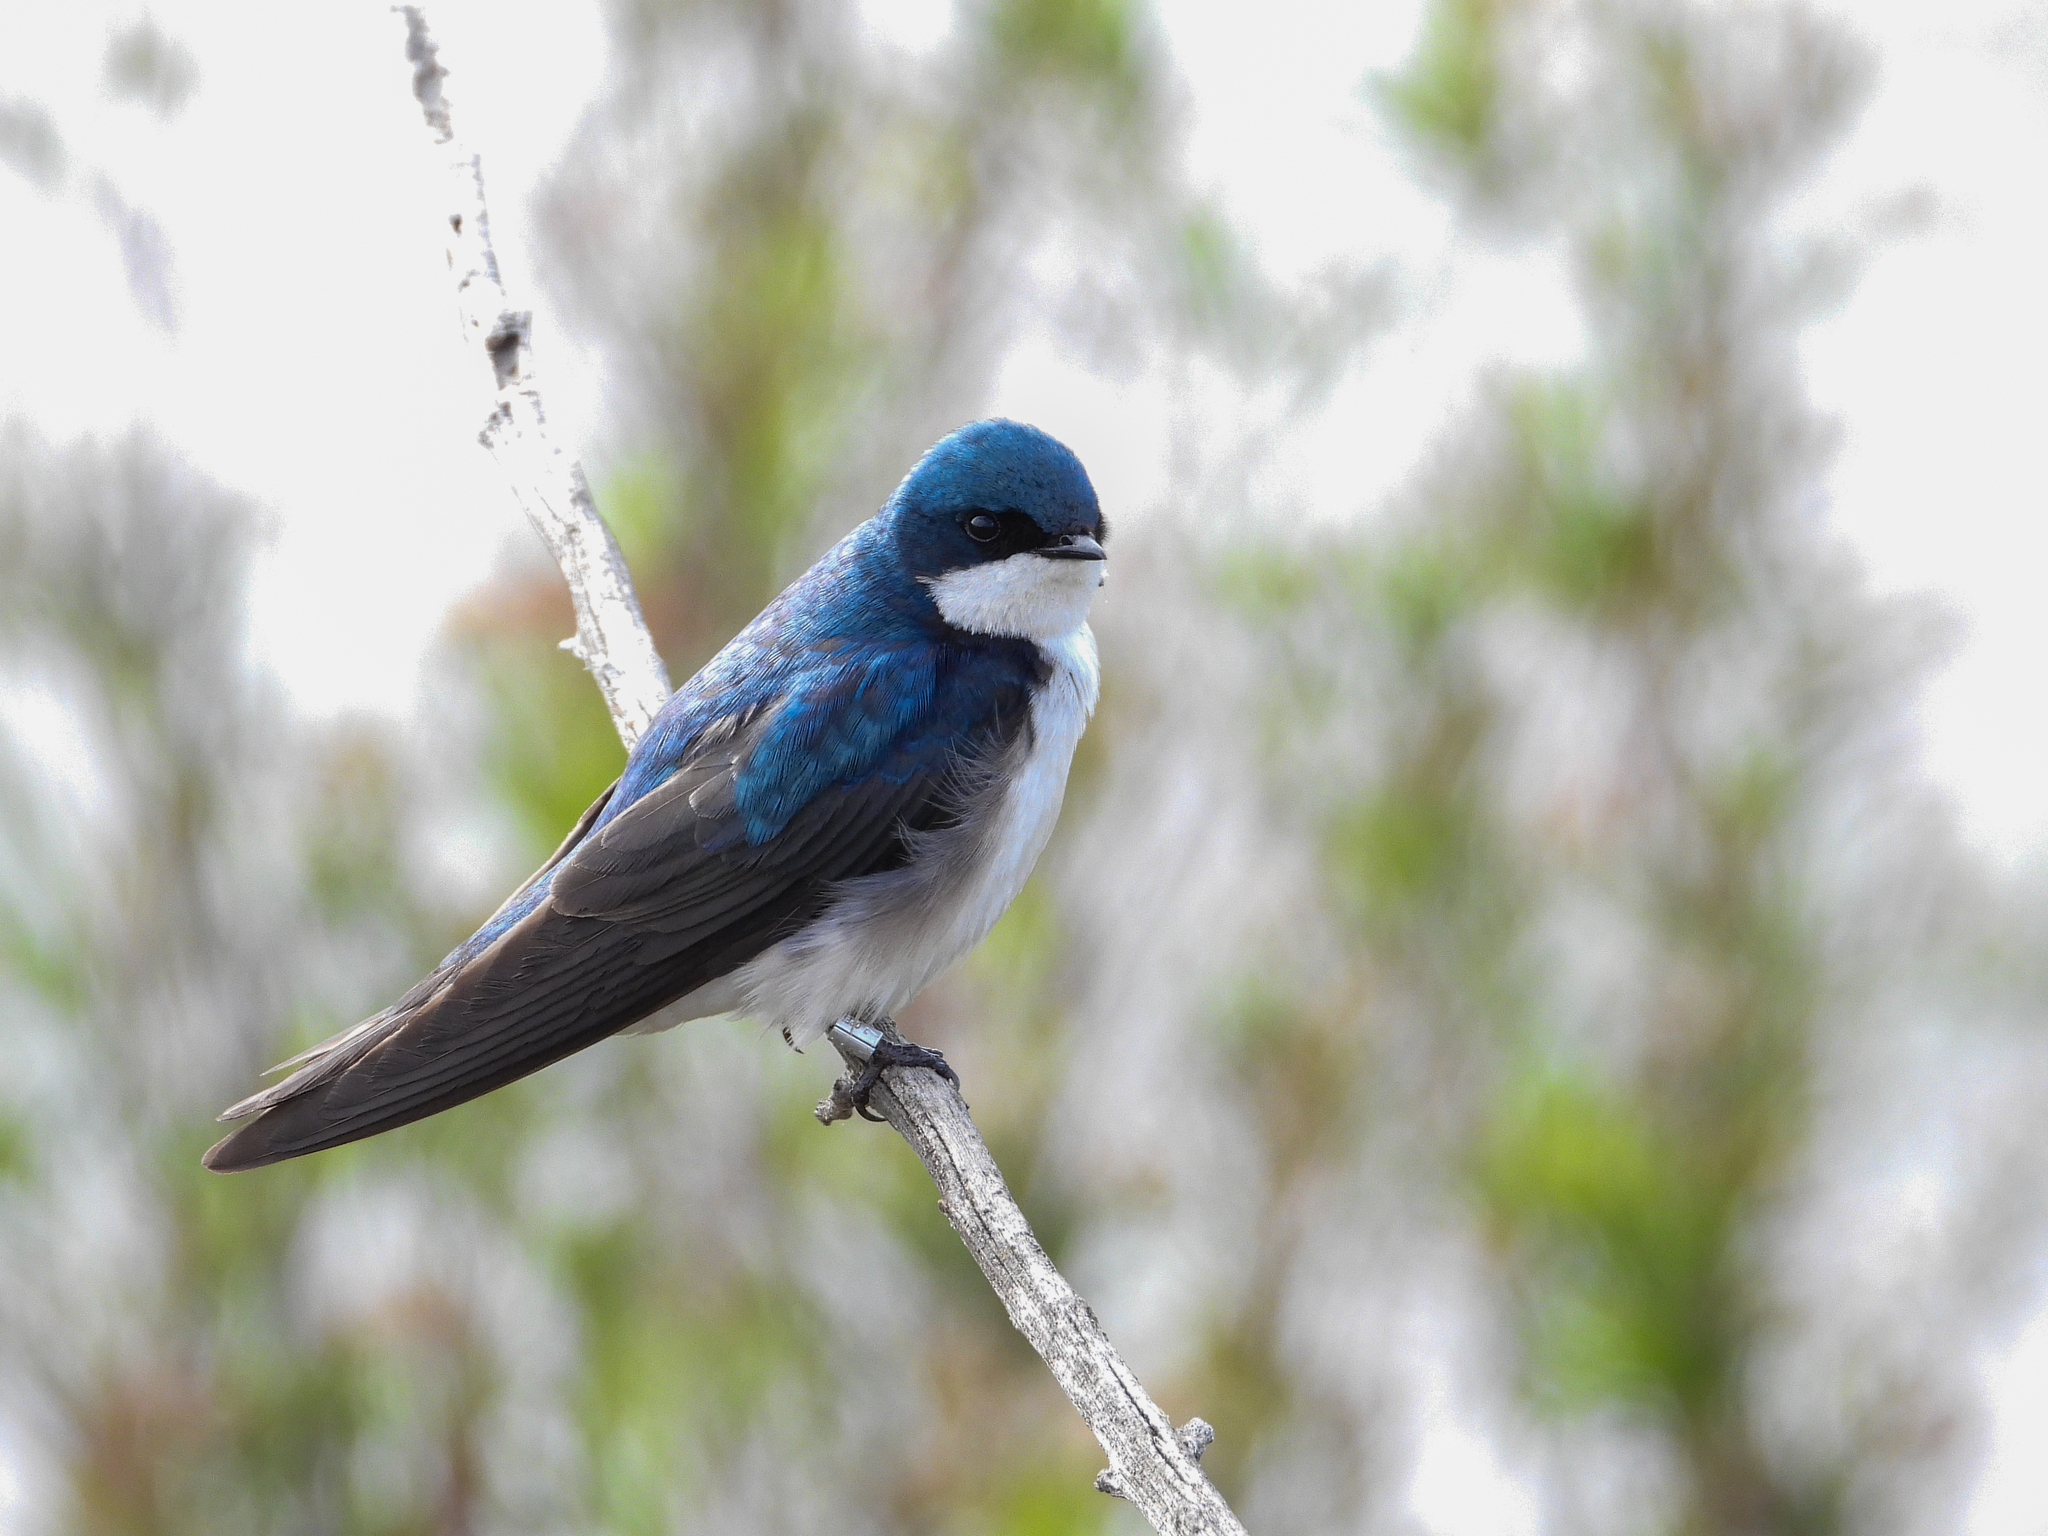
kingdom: Animalia
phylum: Chordata
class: Aves
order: Passeriformes
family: Hirundinidae
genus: Tachycineta
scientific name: Tachycineta bicolor
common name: Tree swallow
